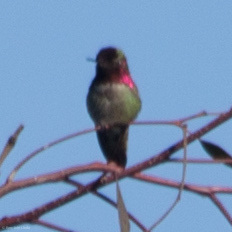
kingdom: Animalia
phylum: Chordata
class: Aves
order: Apodiformes
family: Trochilidae
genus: Calypte
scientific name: Calypte anna
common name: Anna's hummingbird
